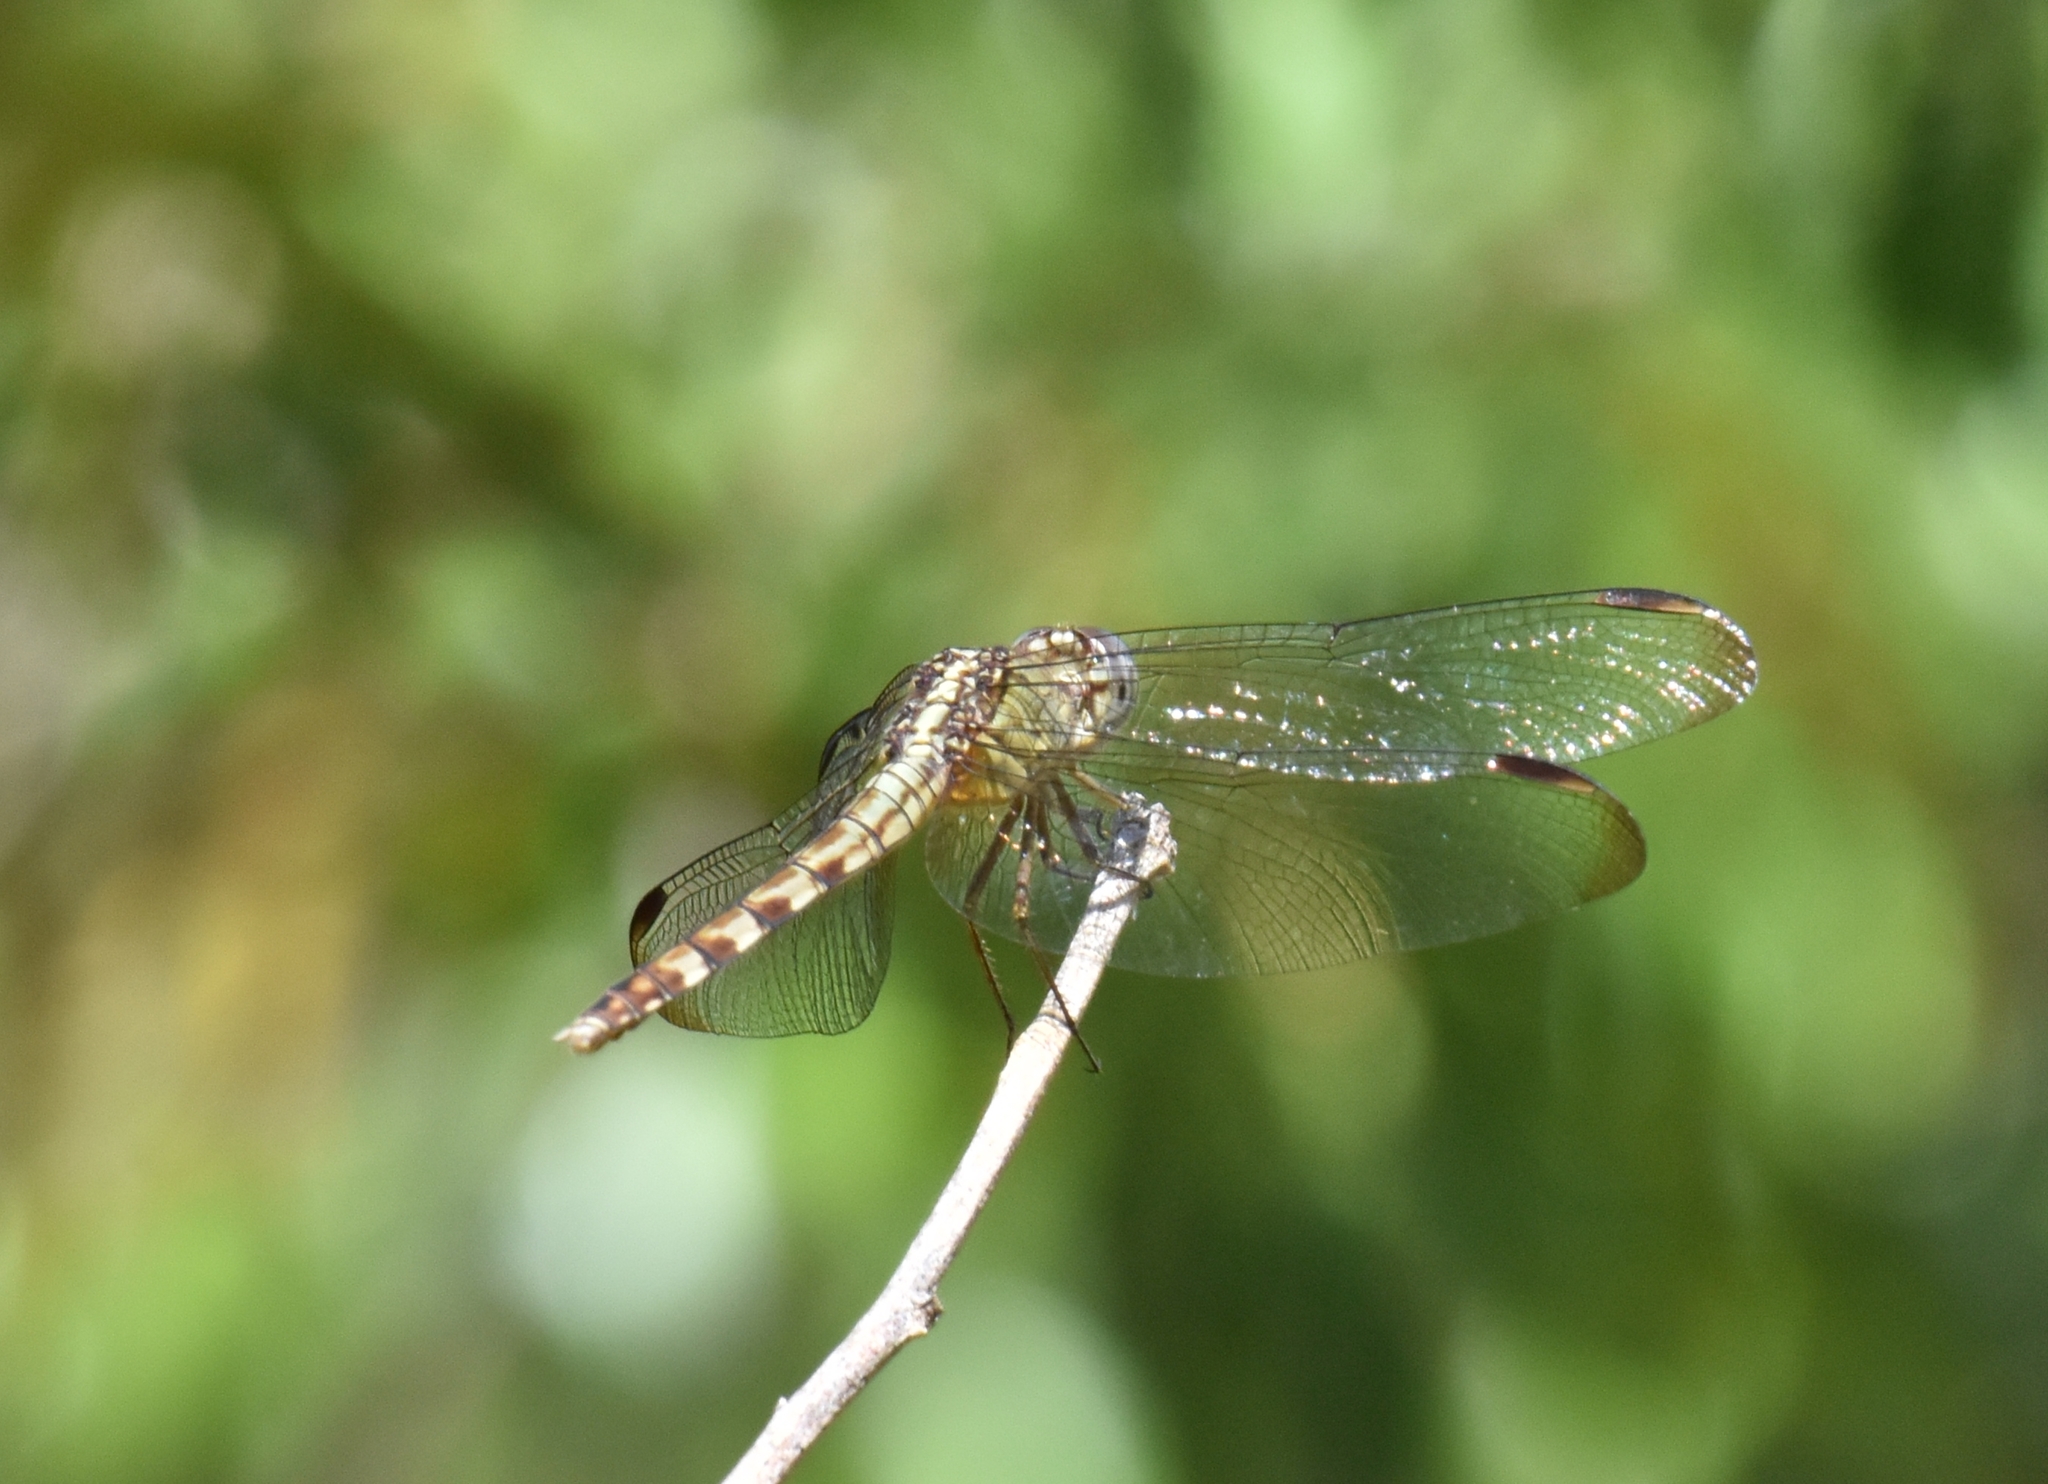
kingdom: Animalia
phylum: Arthropoda
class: Insecta
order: Odonata
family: Libellulidae
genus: Erythrodiplax
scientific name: Erythrodiplax umbrata
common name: Band-winged dragonlet
